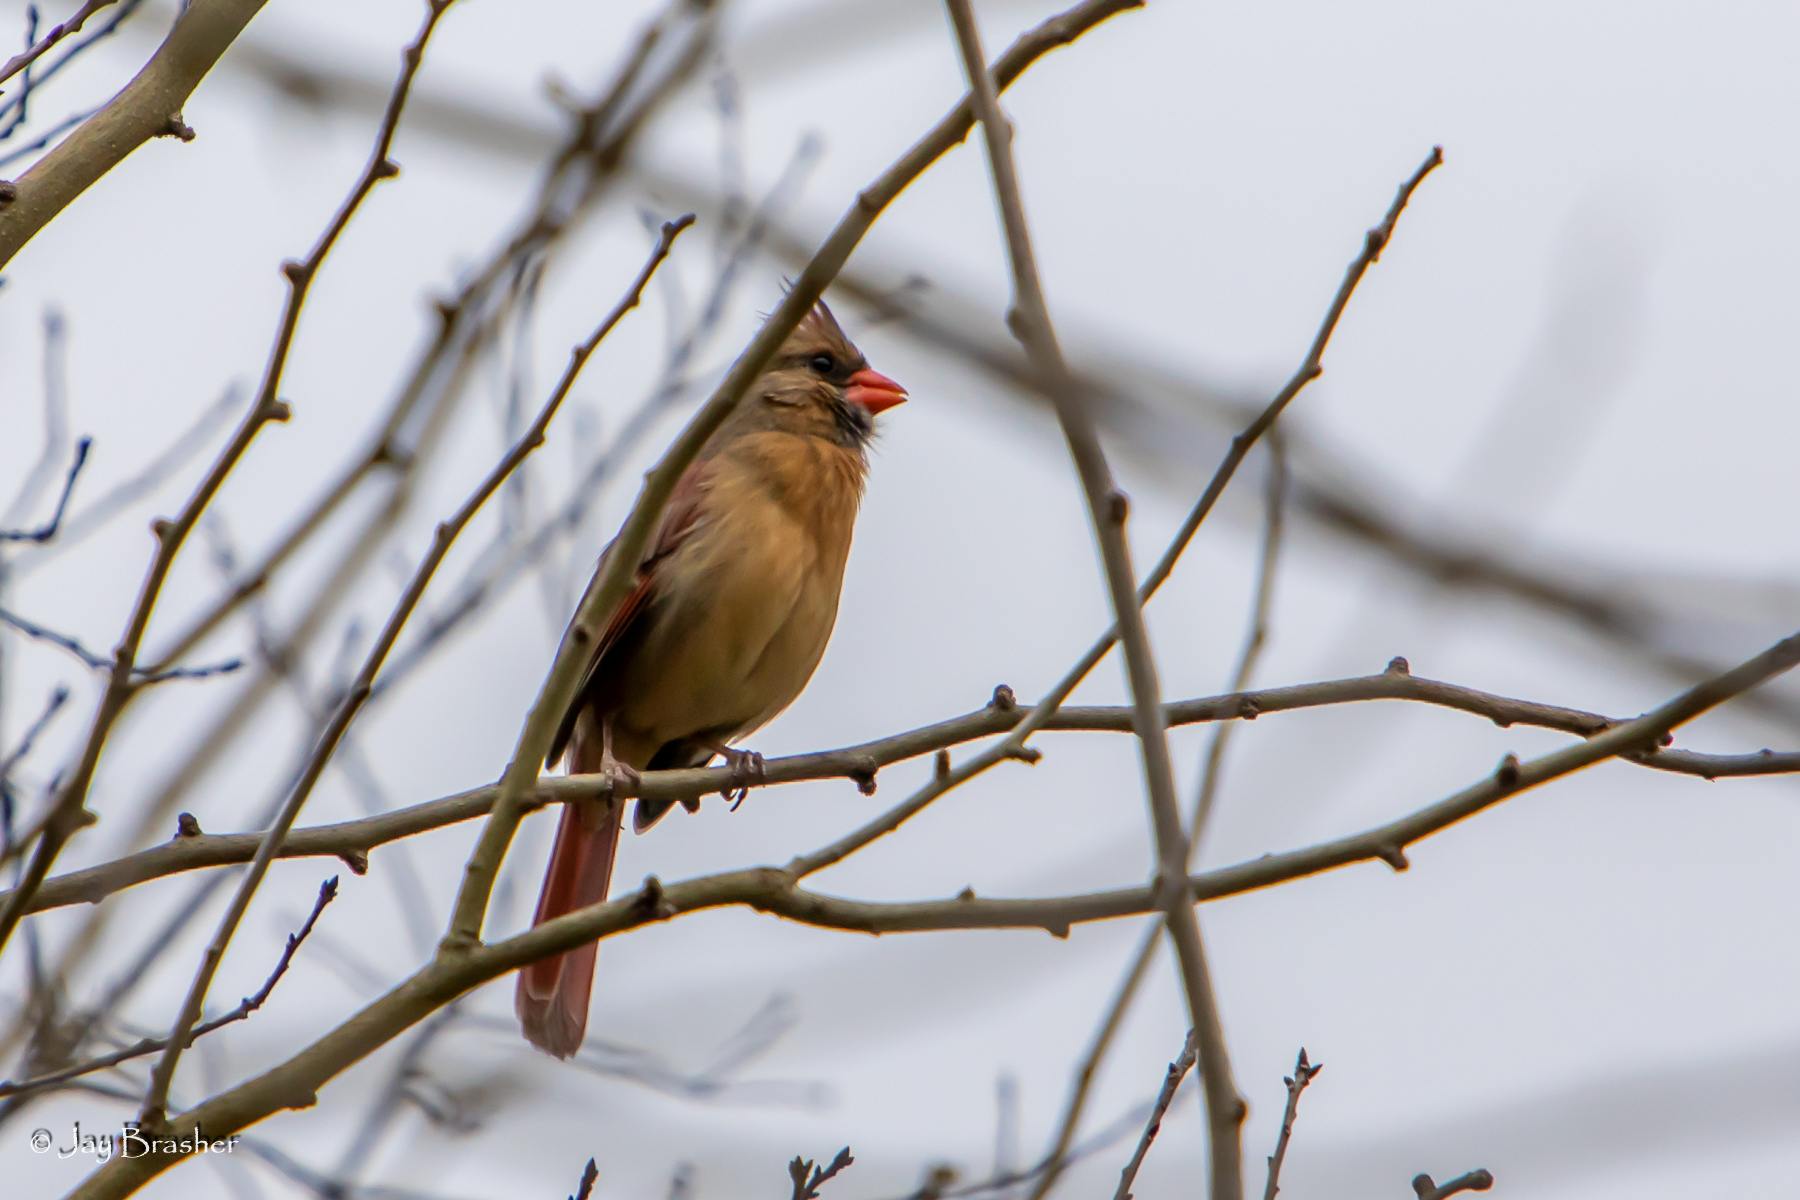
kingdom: Animalia
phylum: Chordata
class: Aves
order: Passeriformes
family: Cardinalidae
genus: Cardinalis
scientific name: Cardinalis cardinalis
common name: Northern cardinal
